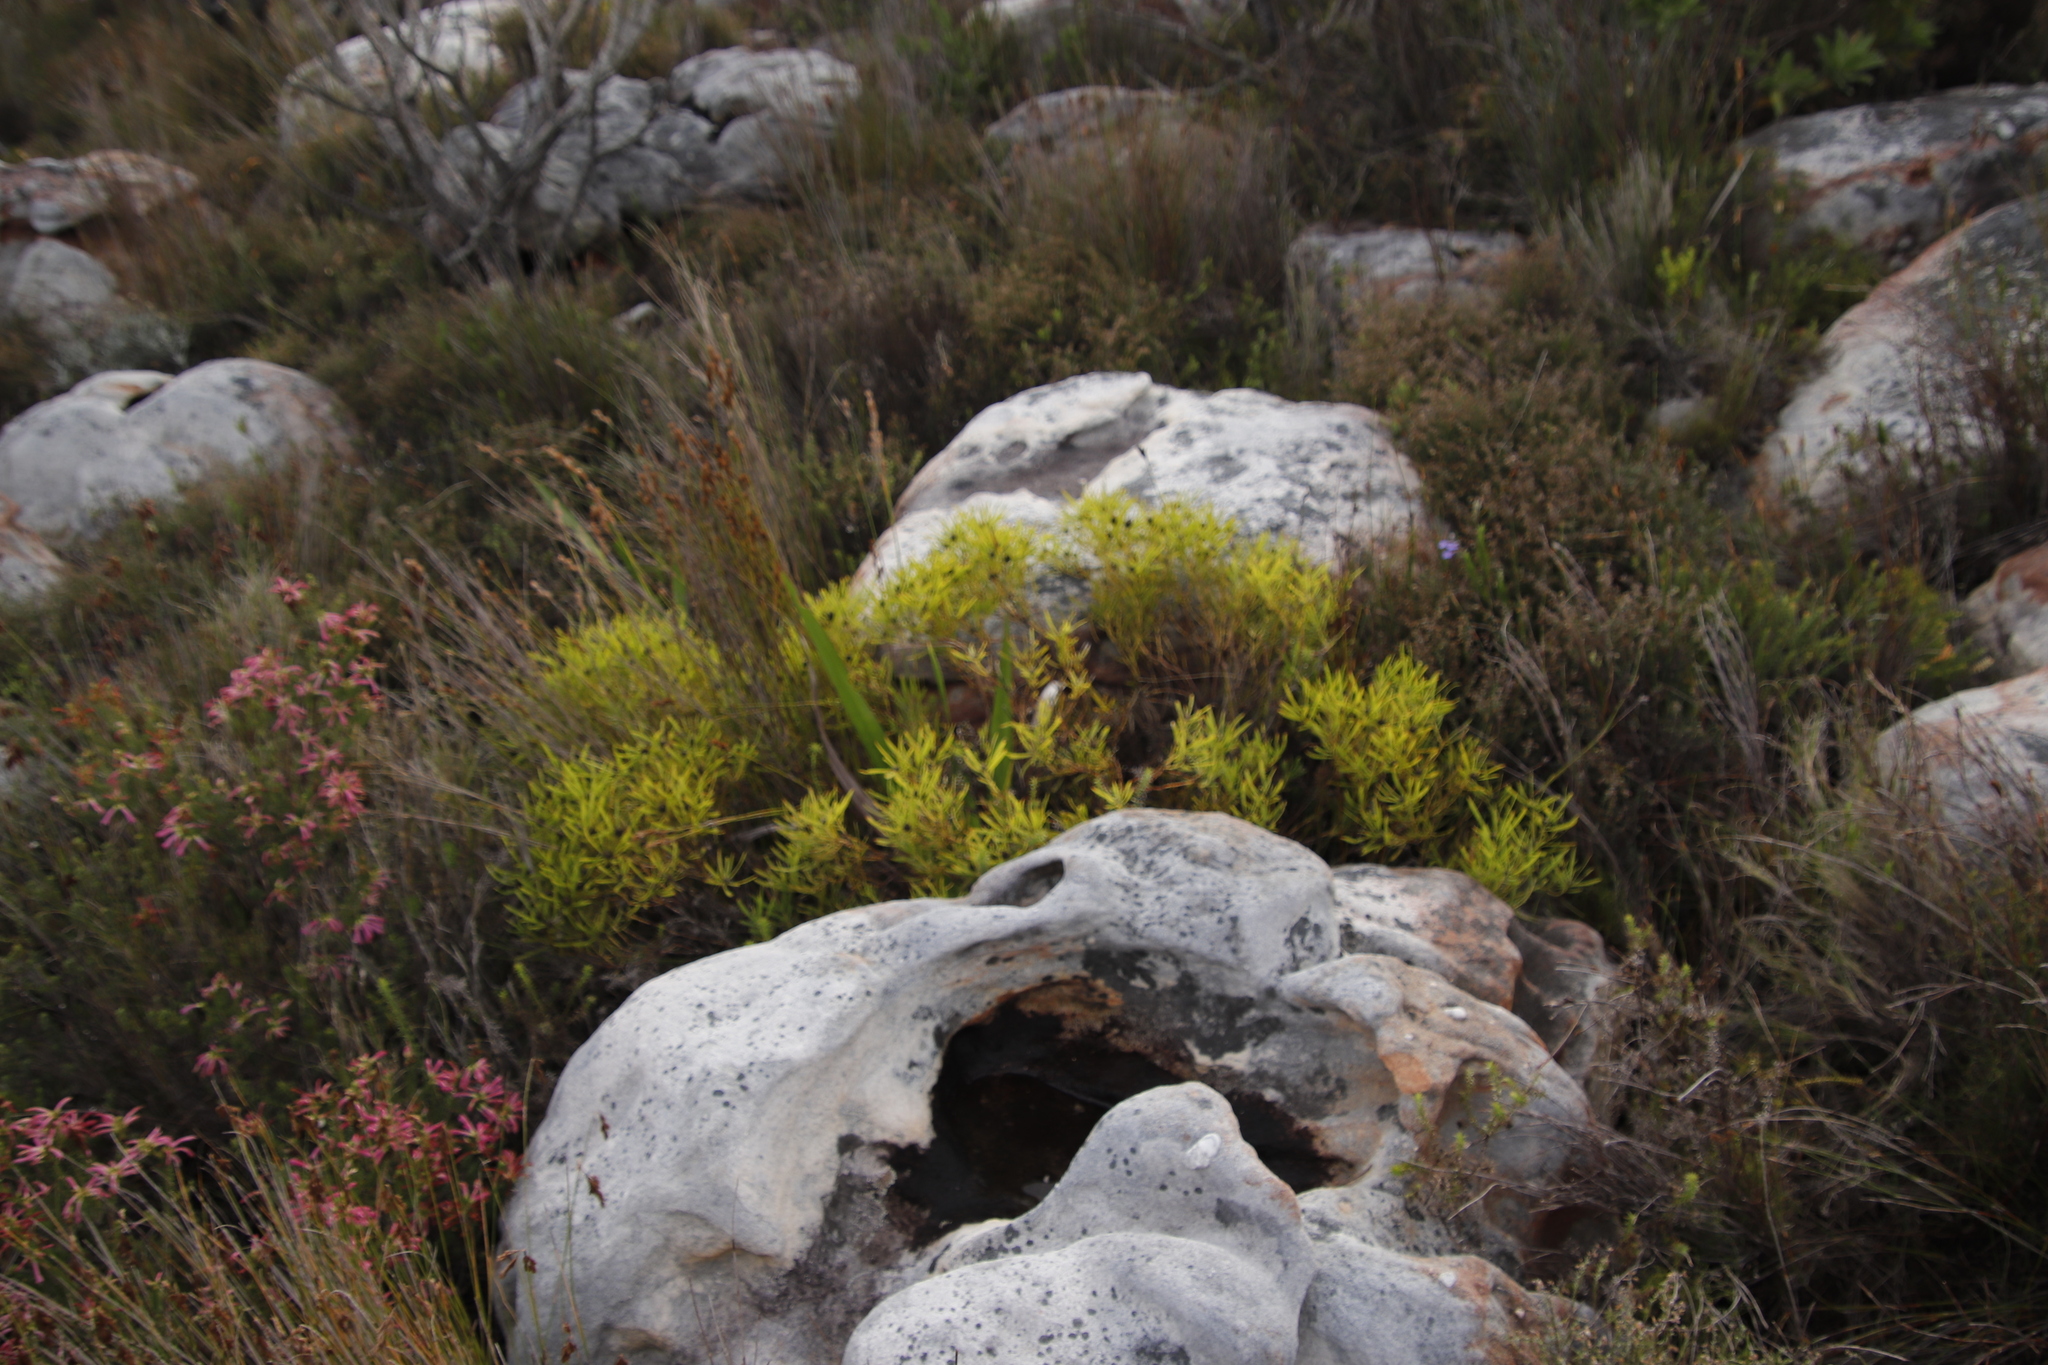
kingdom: Plantae
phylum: Tracheophyta
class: Magnoliopsida
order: Proteales
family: Proteaceae
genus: Leucadendron
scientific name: Leucadendron salignum
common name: Common sunshine conebush
